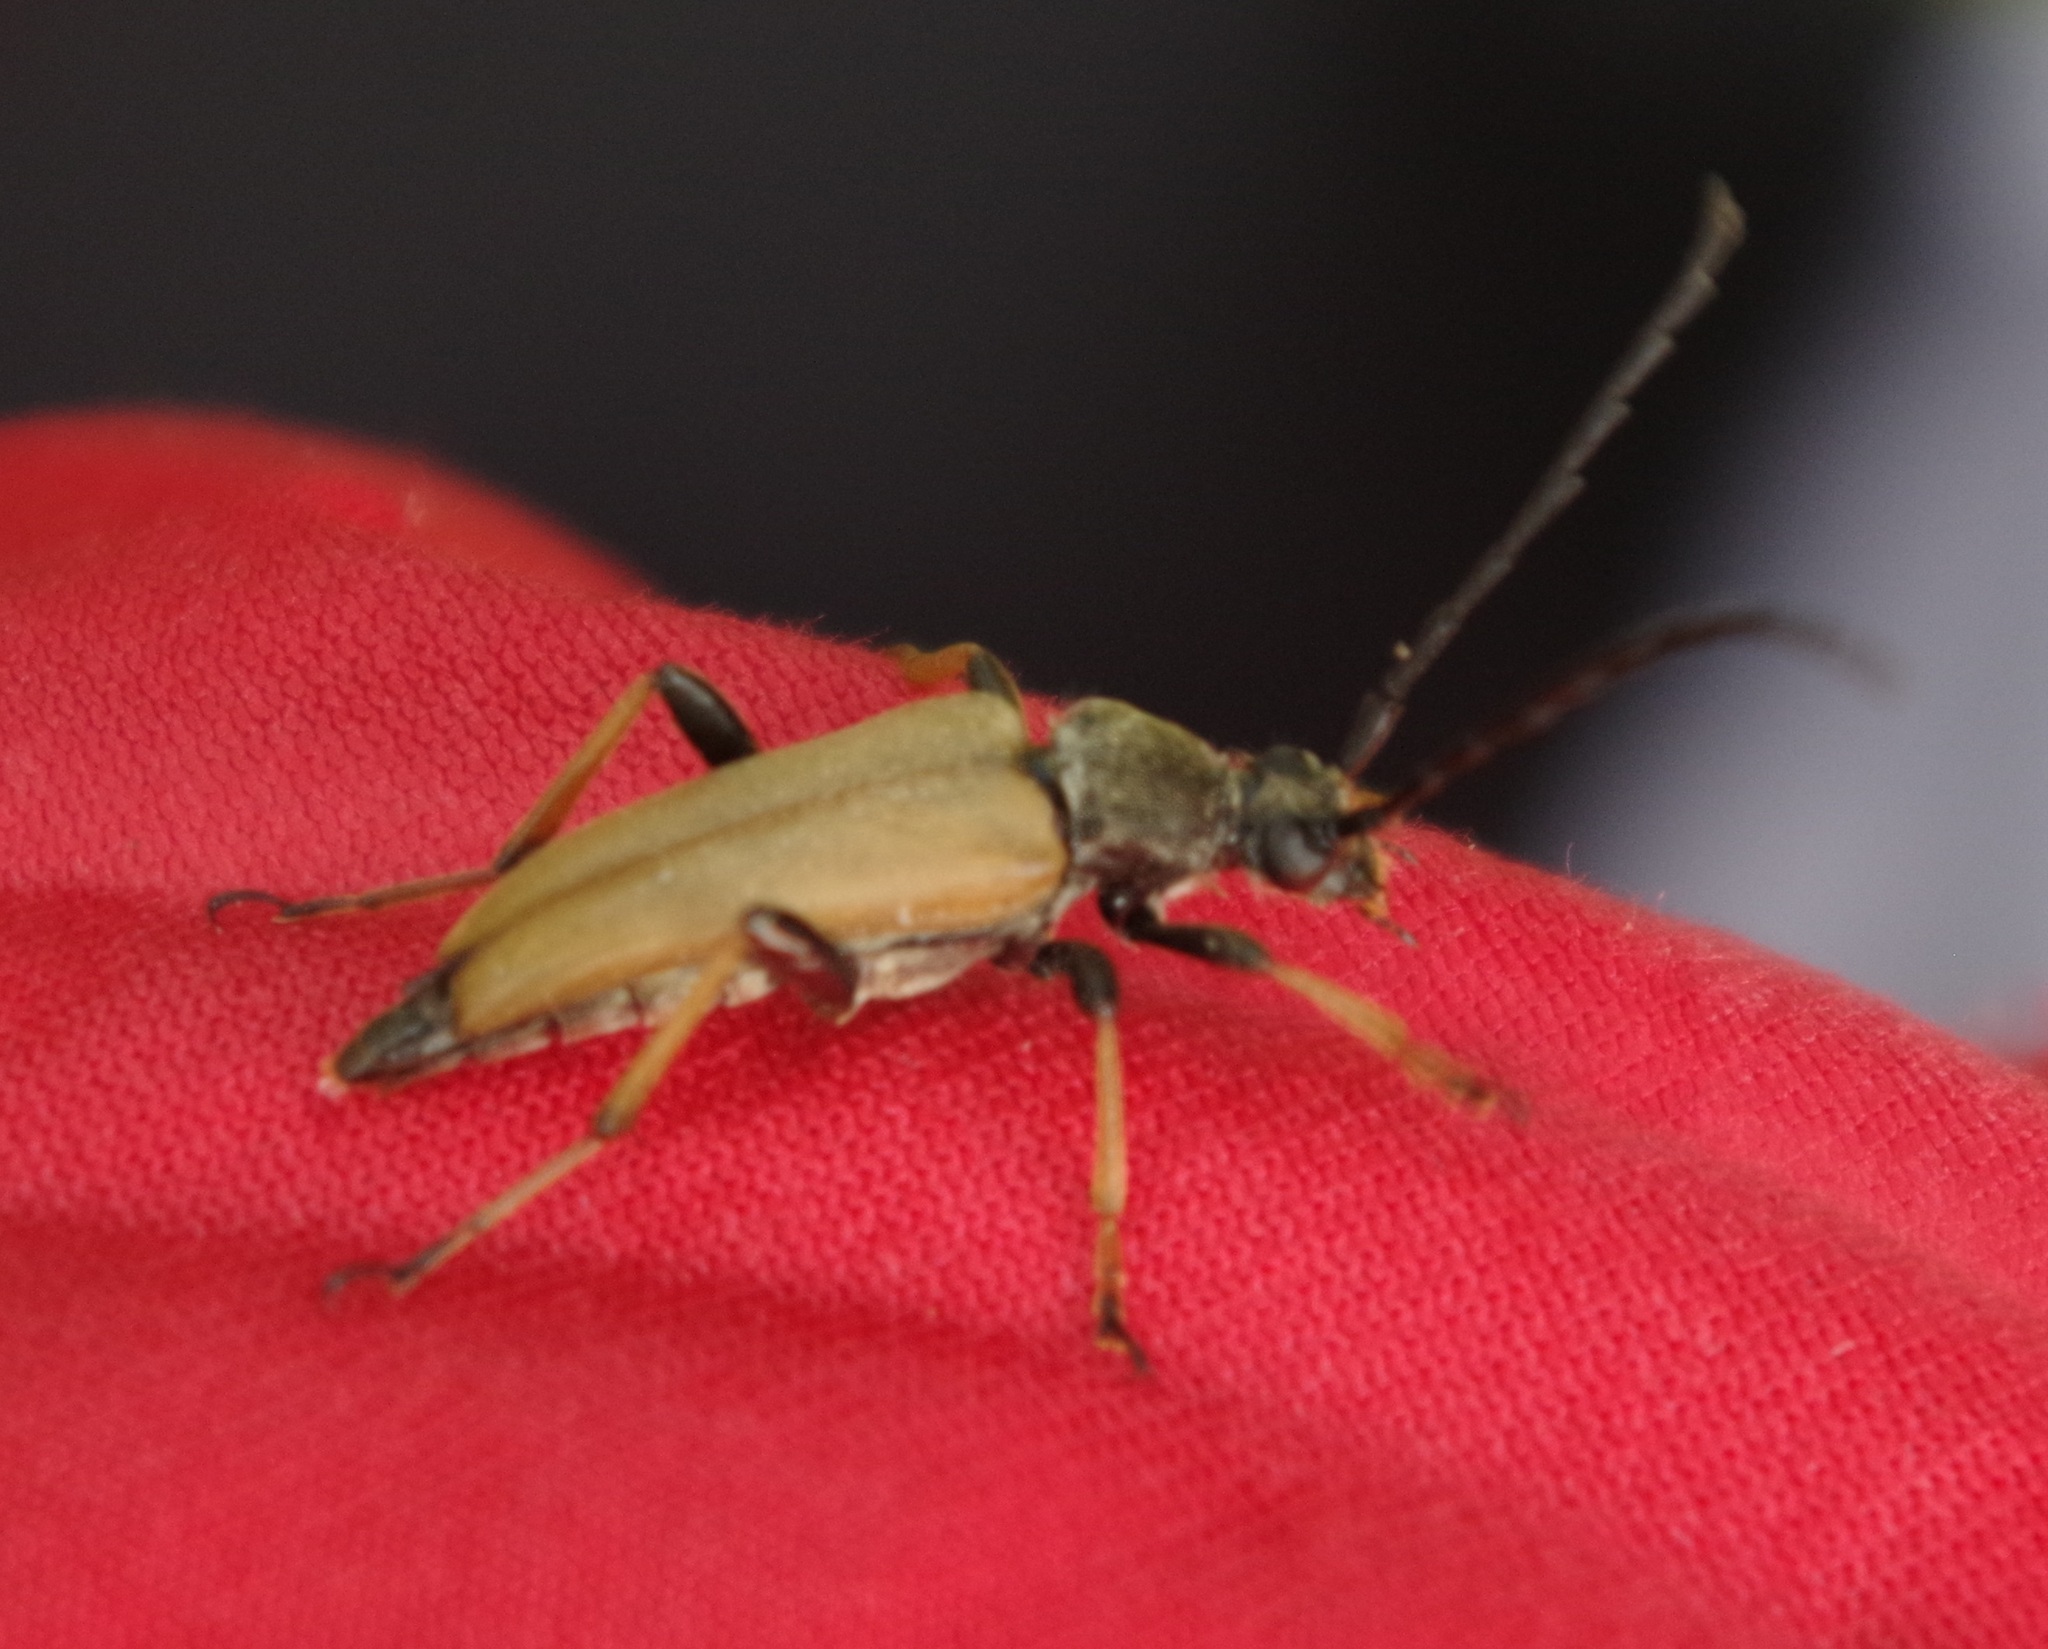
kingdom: Animalia
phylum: Arthropoda
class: Insecta
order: Coleoptera
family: Cerambycidae
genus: Stictoleptura
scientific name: Stictoleptura rubra
